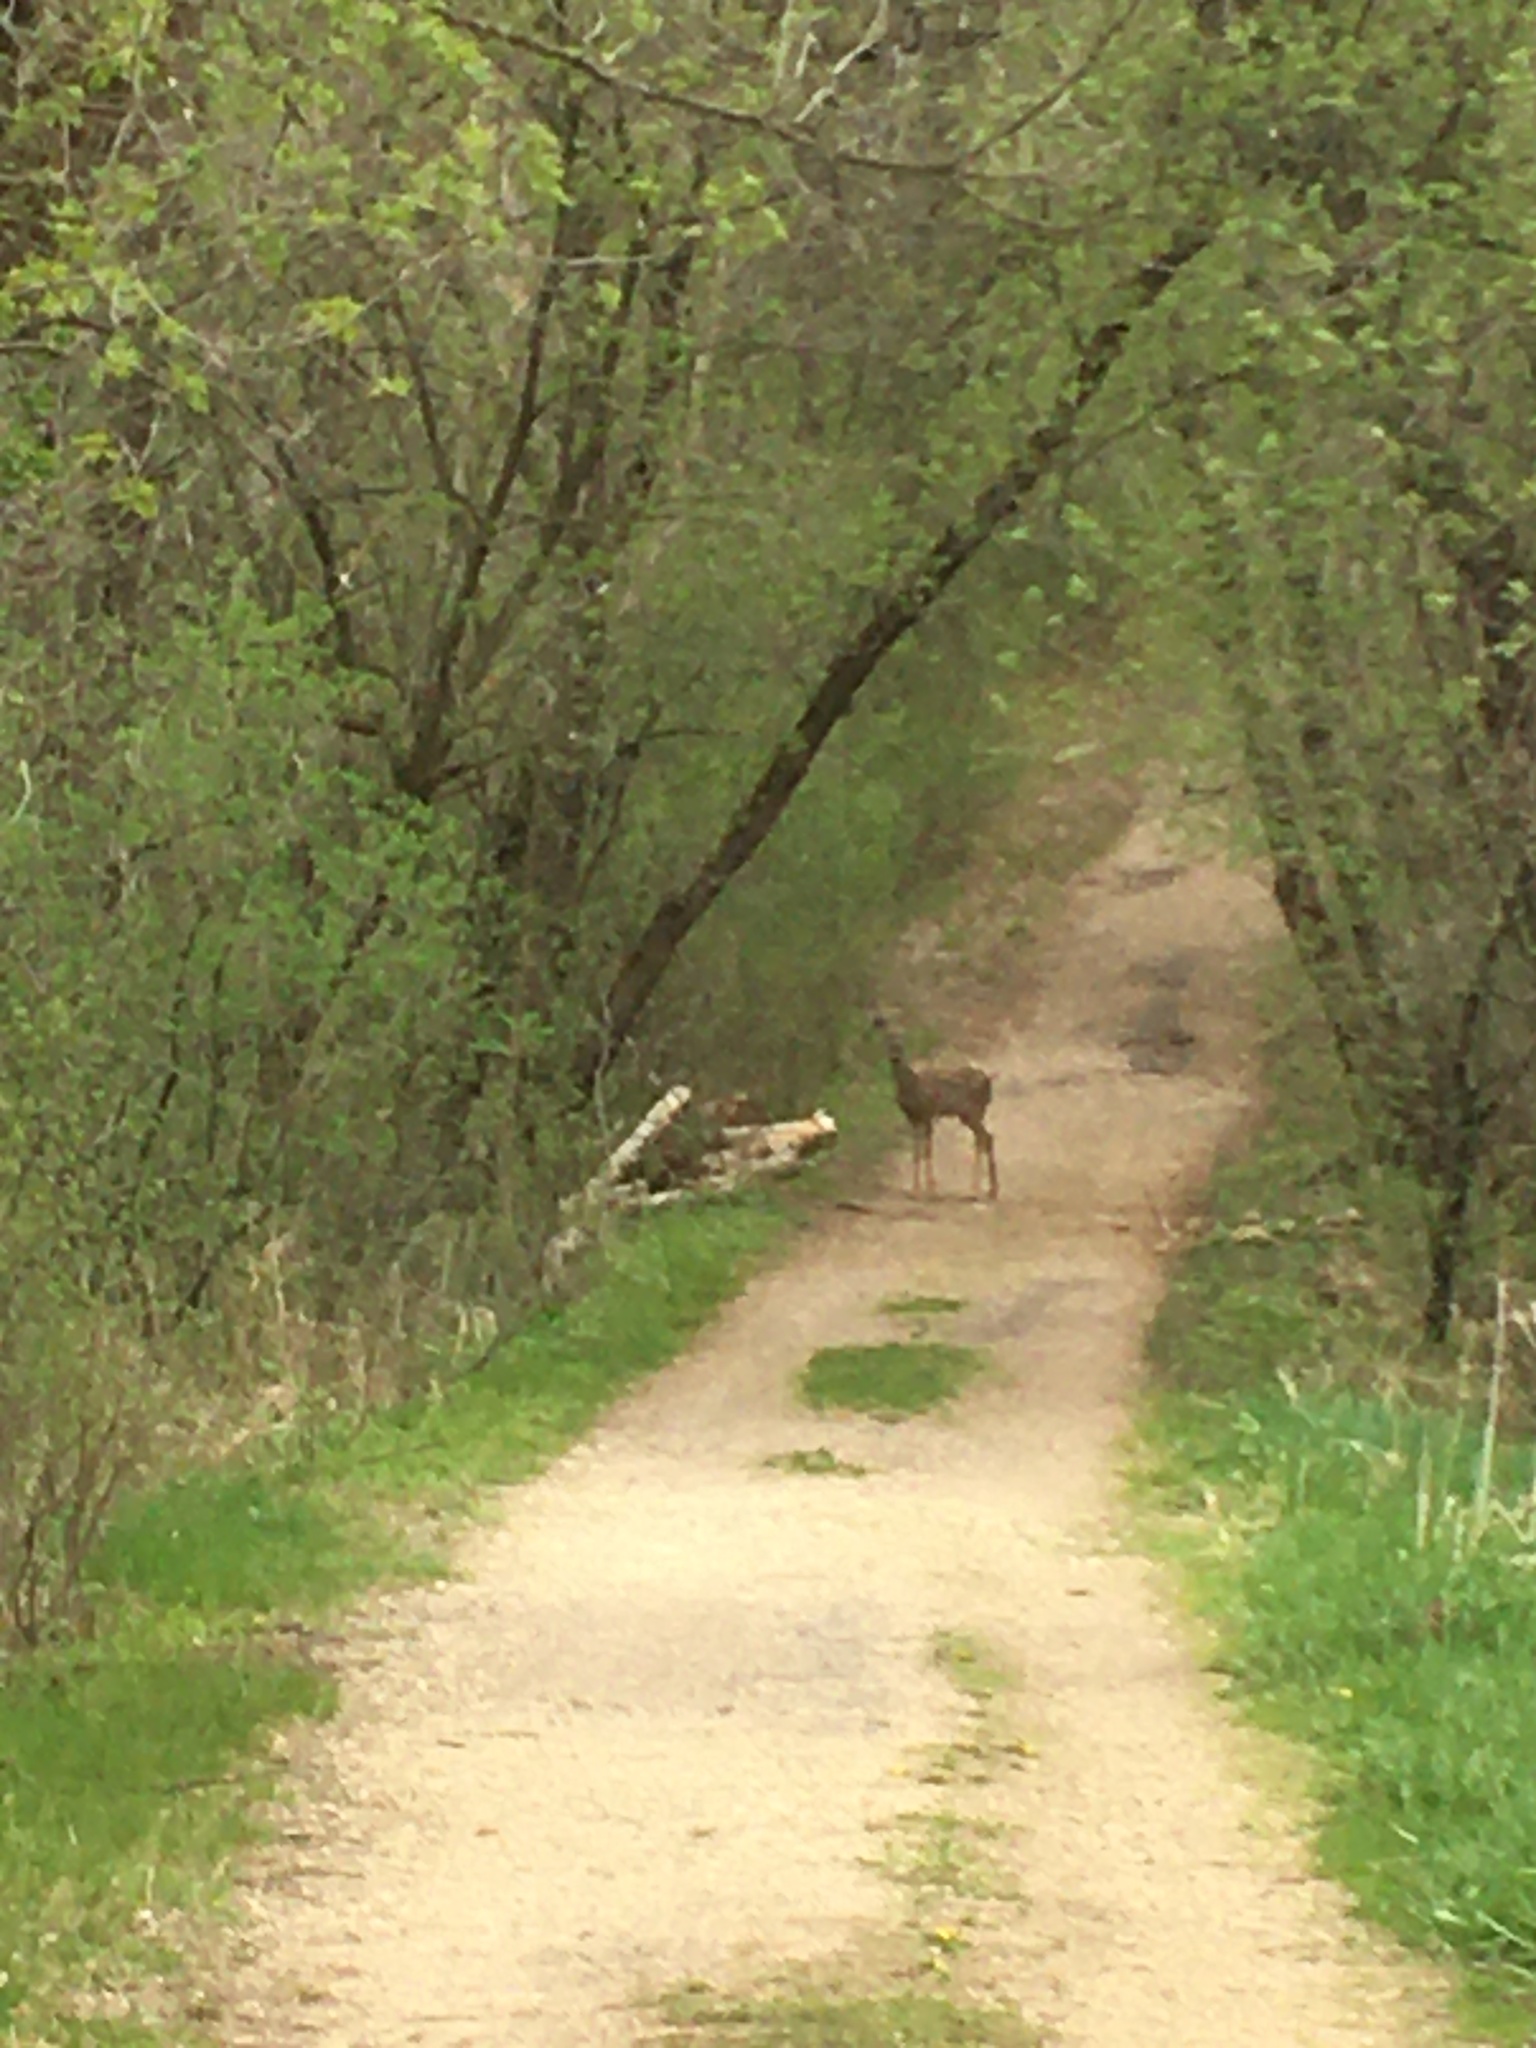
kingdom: Animalia
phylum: Chordata
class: Mammalia
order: Artiodactyla
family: Cervidae
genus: Odocoileus
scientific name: Odocoileus virginianus
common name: White-tailed deer
